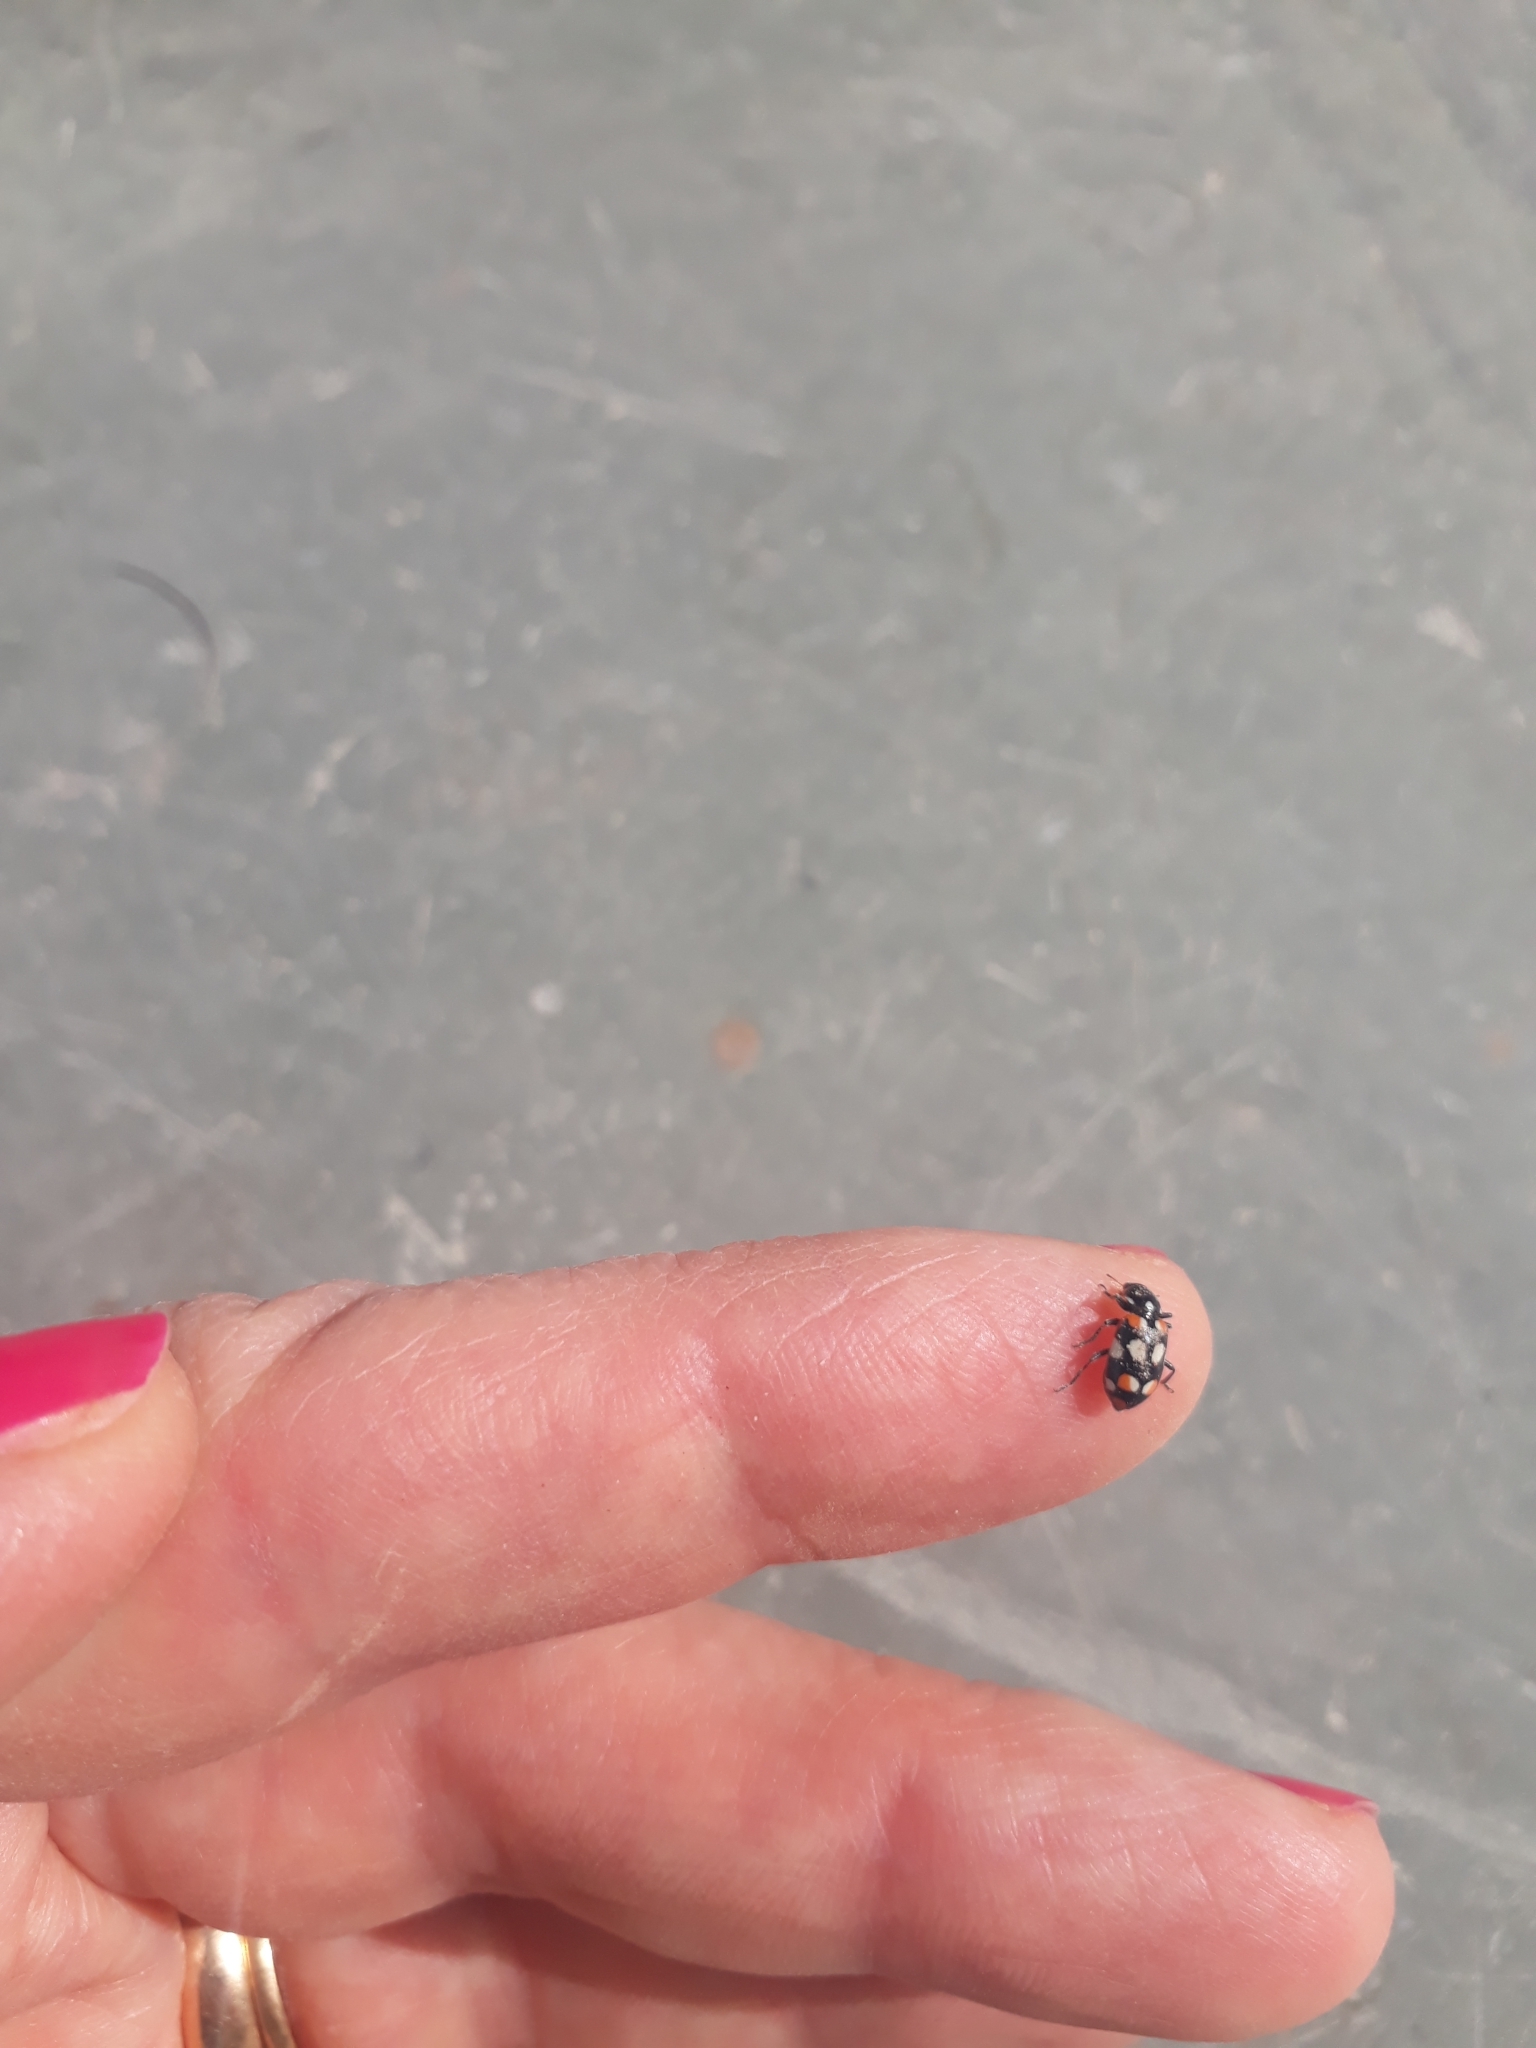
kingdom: Animalia
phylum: Arthropoda
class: Insecta
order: Coleoptera
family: Coccinellidae
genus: Eriopis
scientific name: Eriopis connexa
